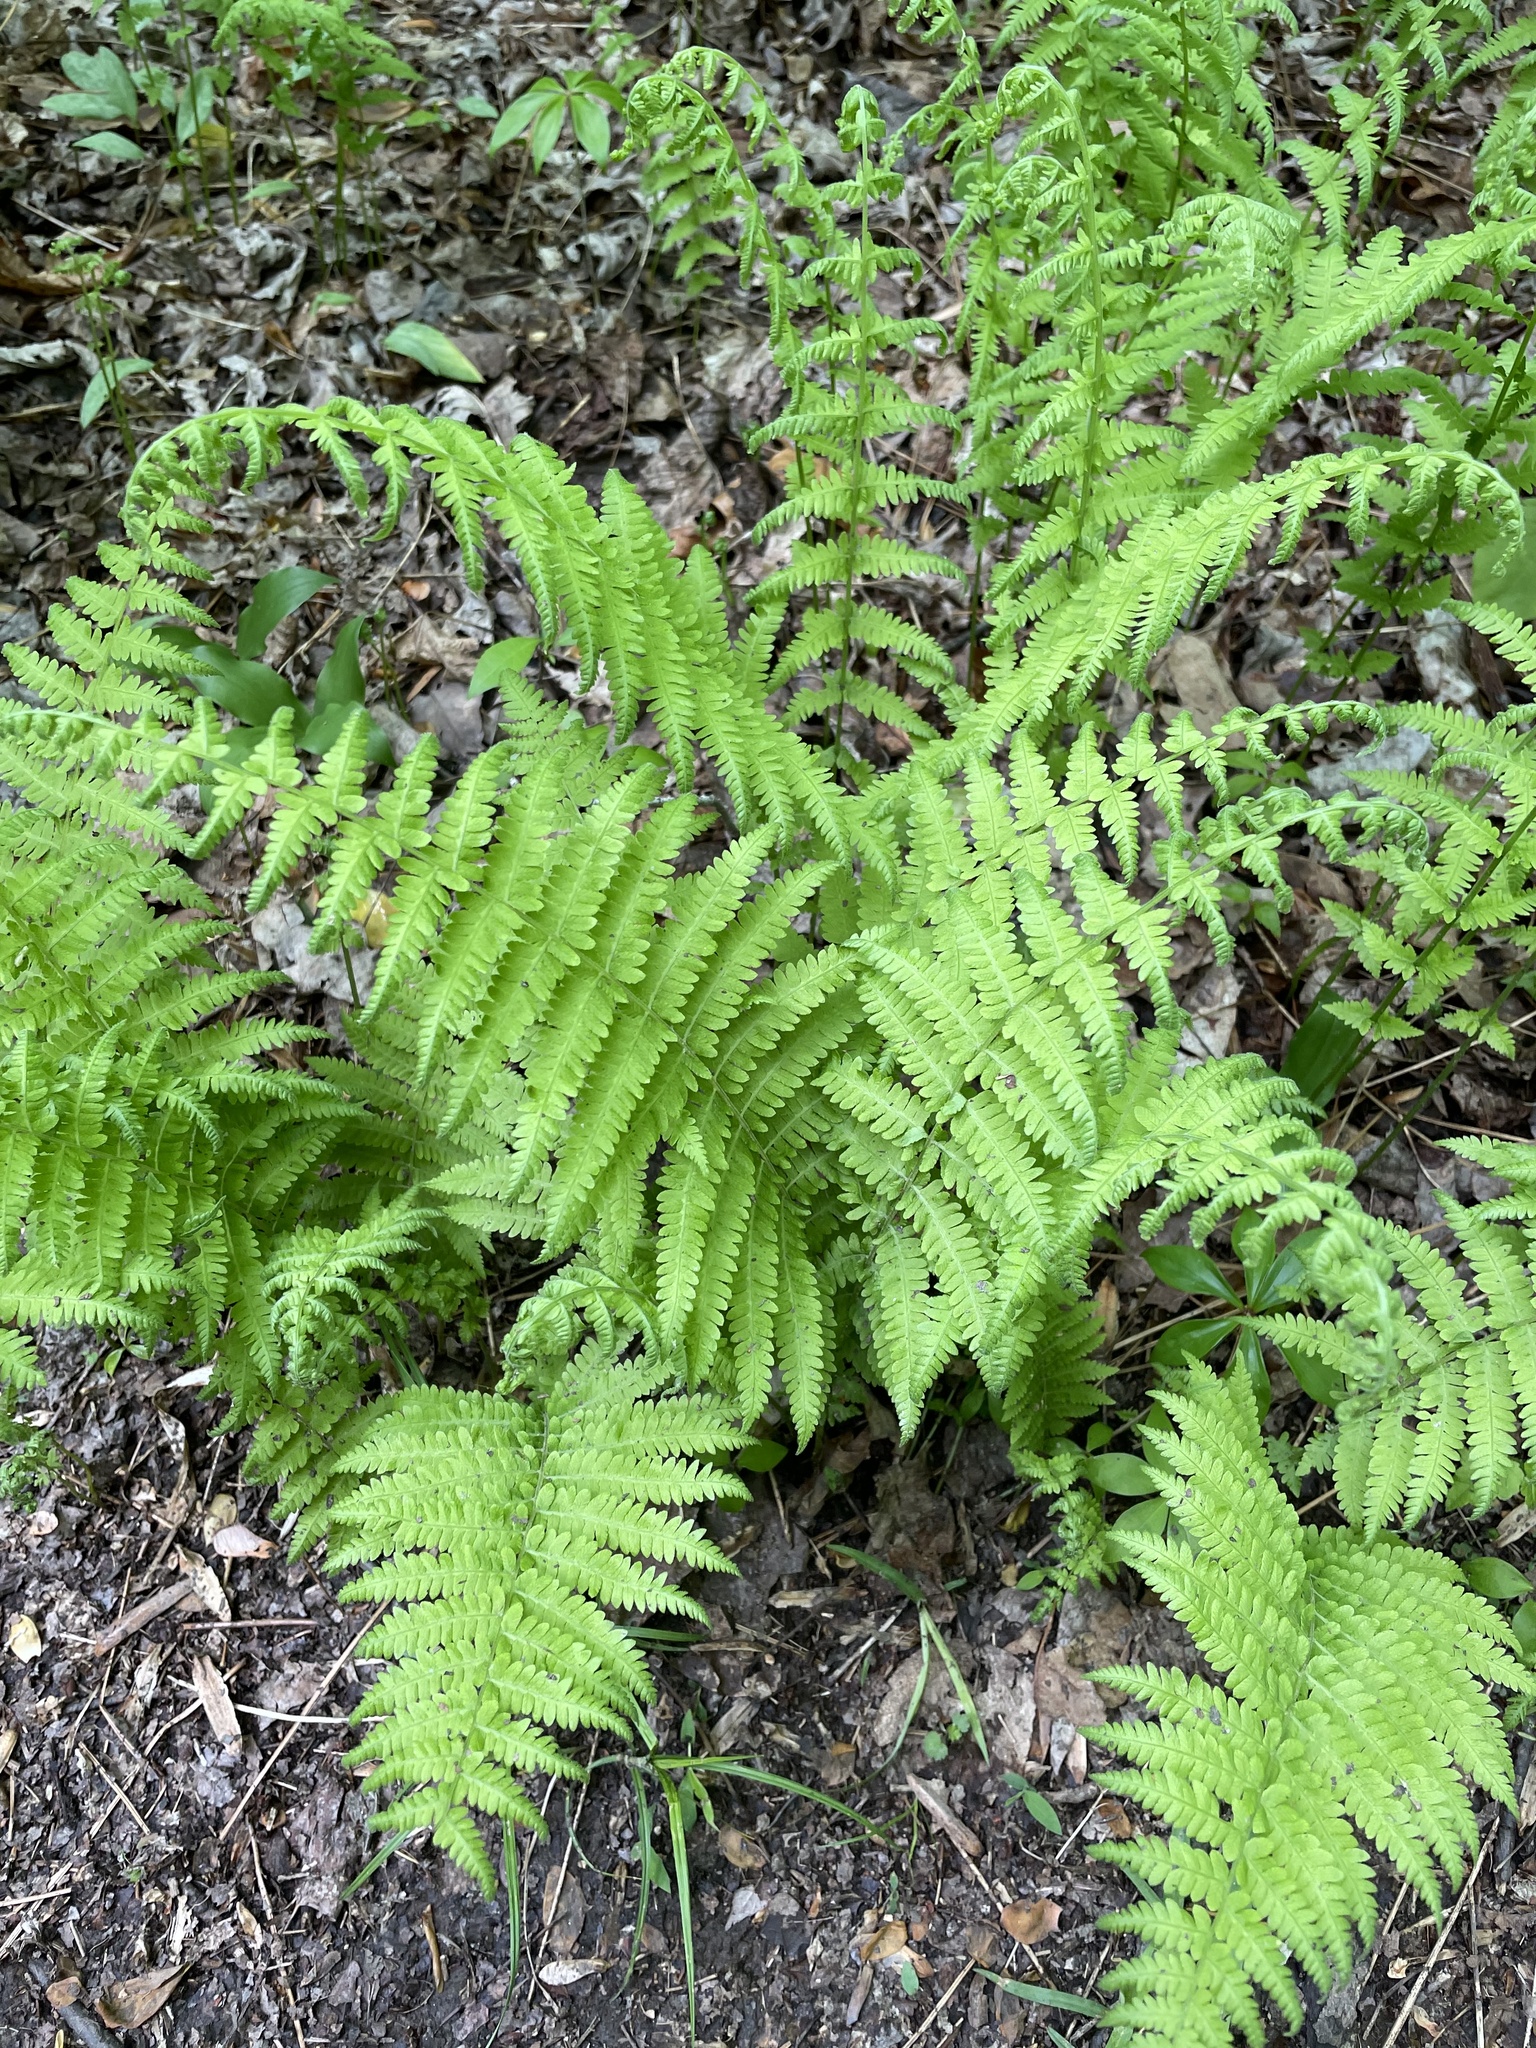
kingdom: Plantae
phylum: Tracheophyta
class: Polypodiopsida
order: Polypodiales
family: Thelypteridaceae
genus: Amauropelta
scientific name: Amauropelta noveboracensis
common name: New york fern
